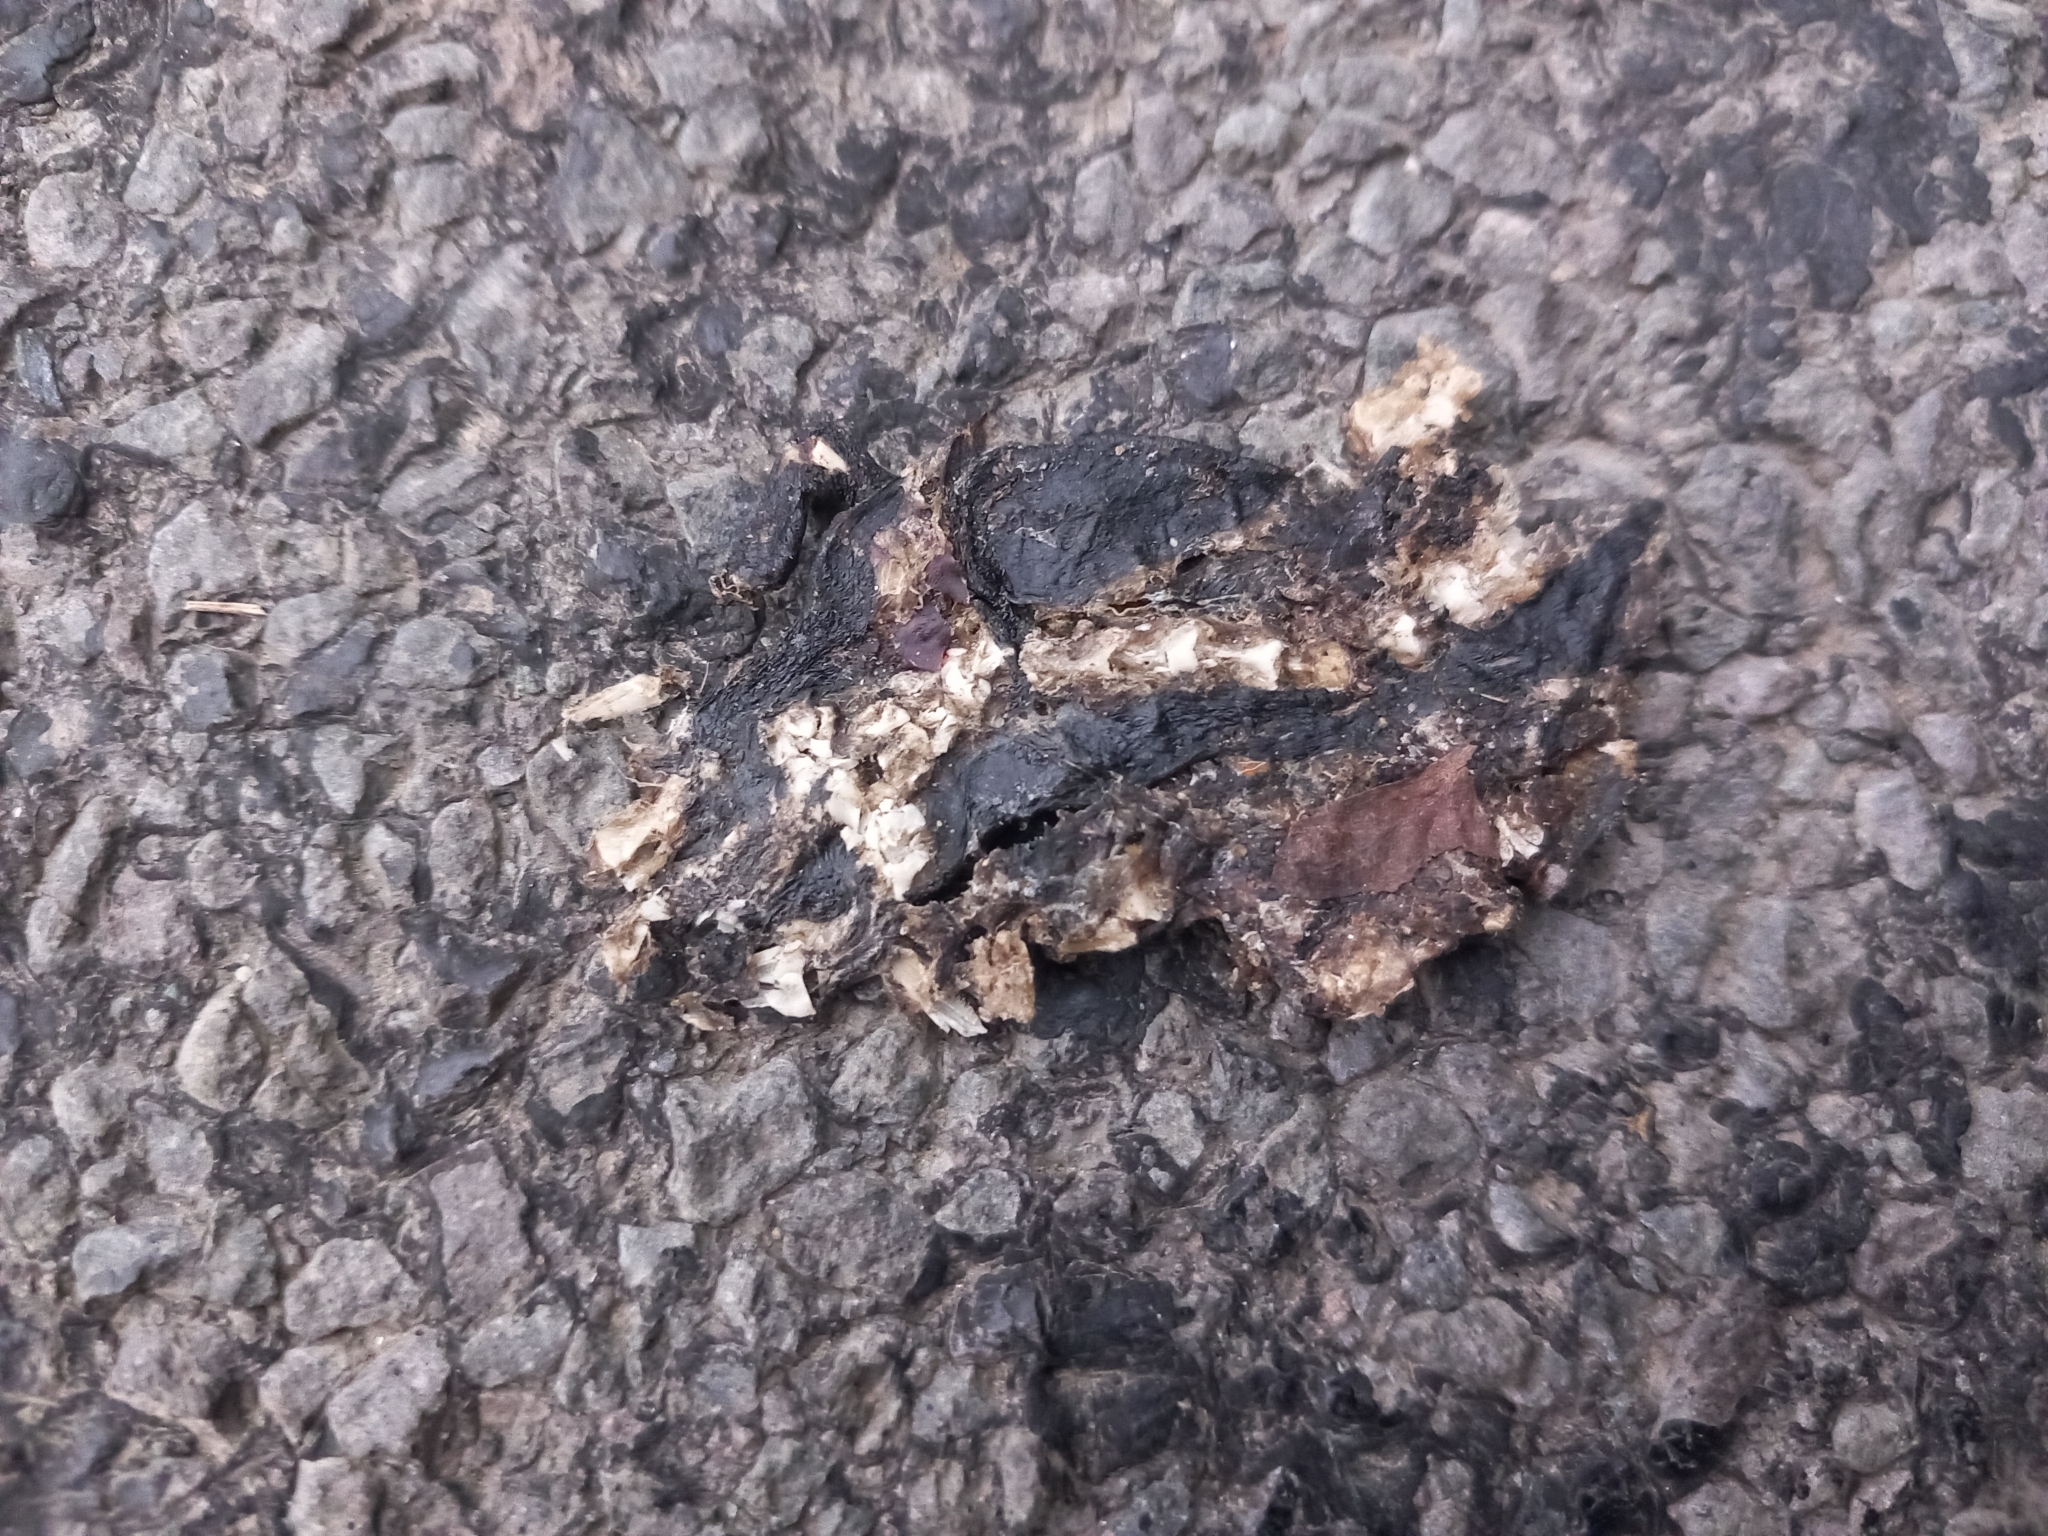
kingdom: Animalia
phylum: Chordata
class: Amphibia
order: Caudata
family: Salamandridae
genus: Triturus
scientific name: Triturus carnifex
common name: Italian crested newt
